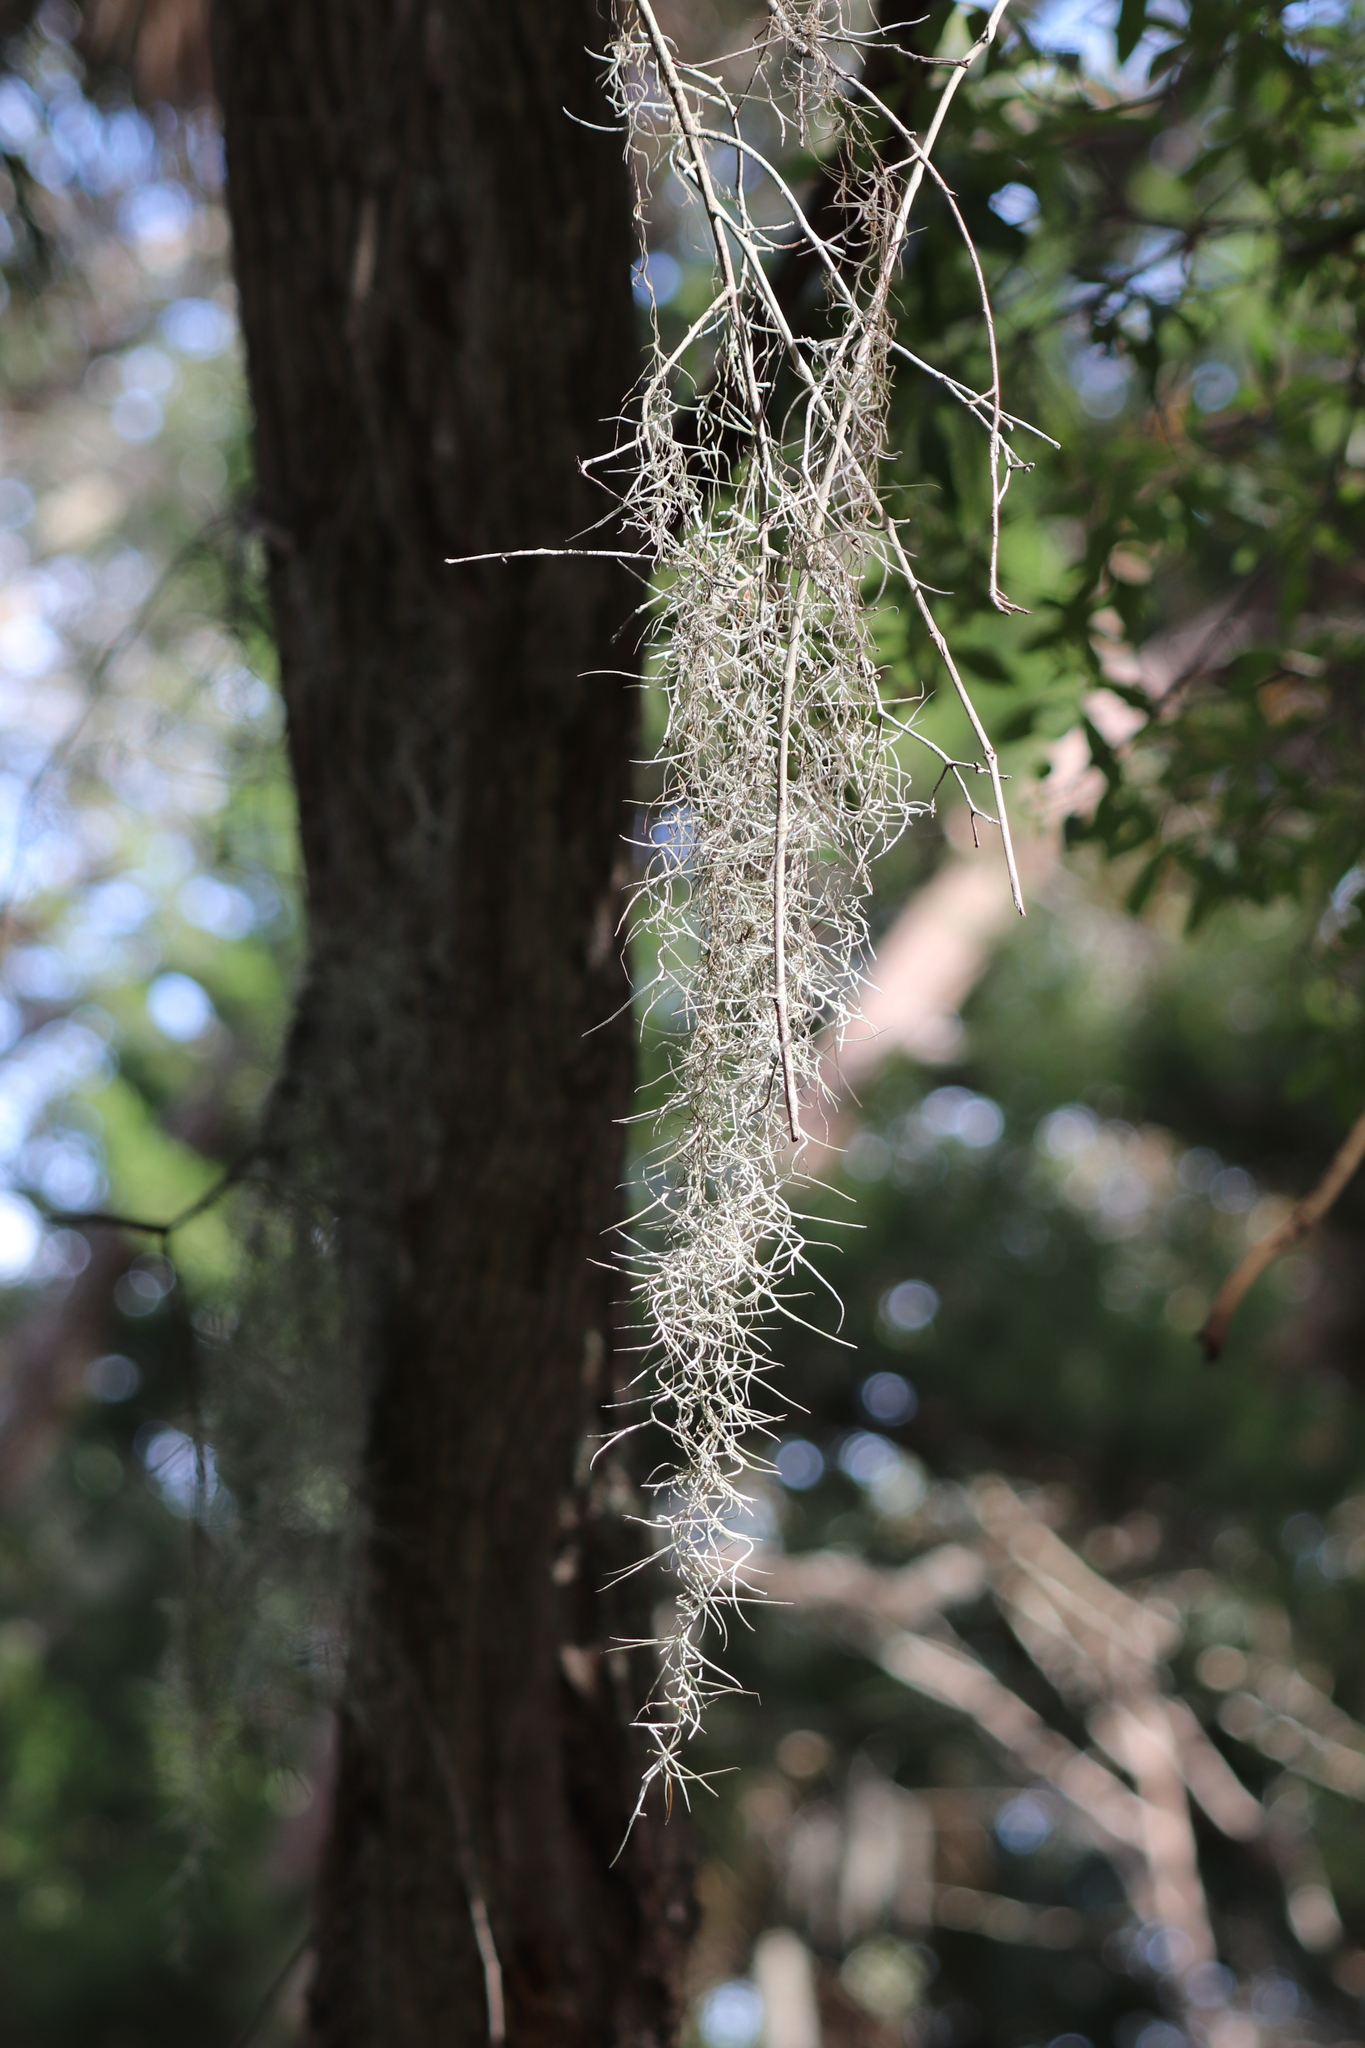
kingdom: Plantae
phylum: Tracheophyta
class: Liliopsida
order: Poales
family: Bromeliaceae
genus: Tillandsia
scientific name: Tillandsia usneoides
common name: Spanish moss
